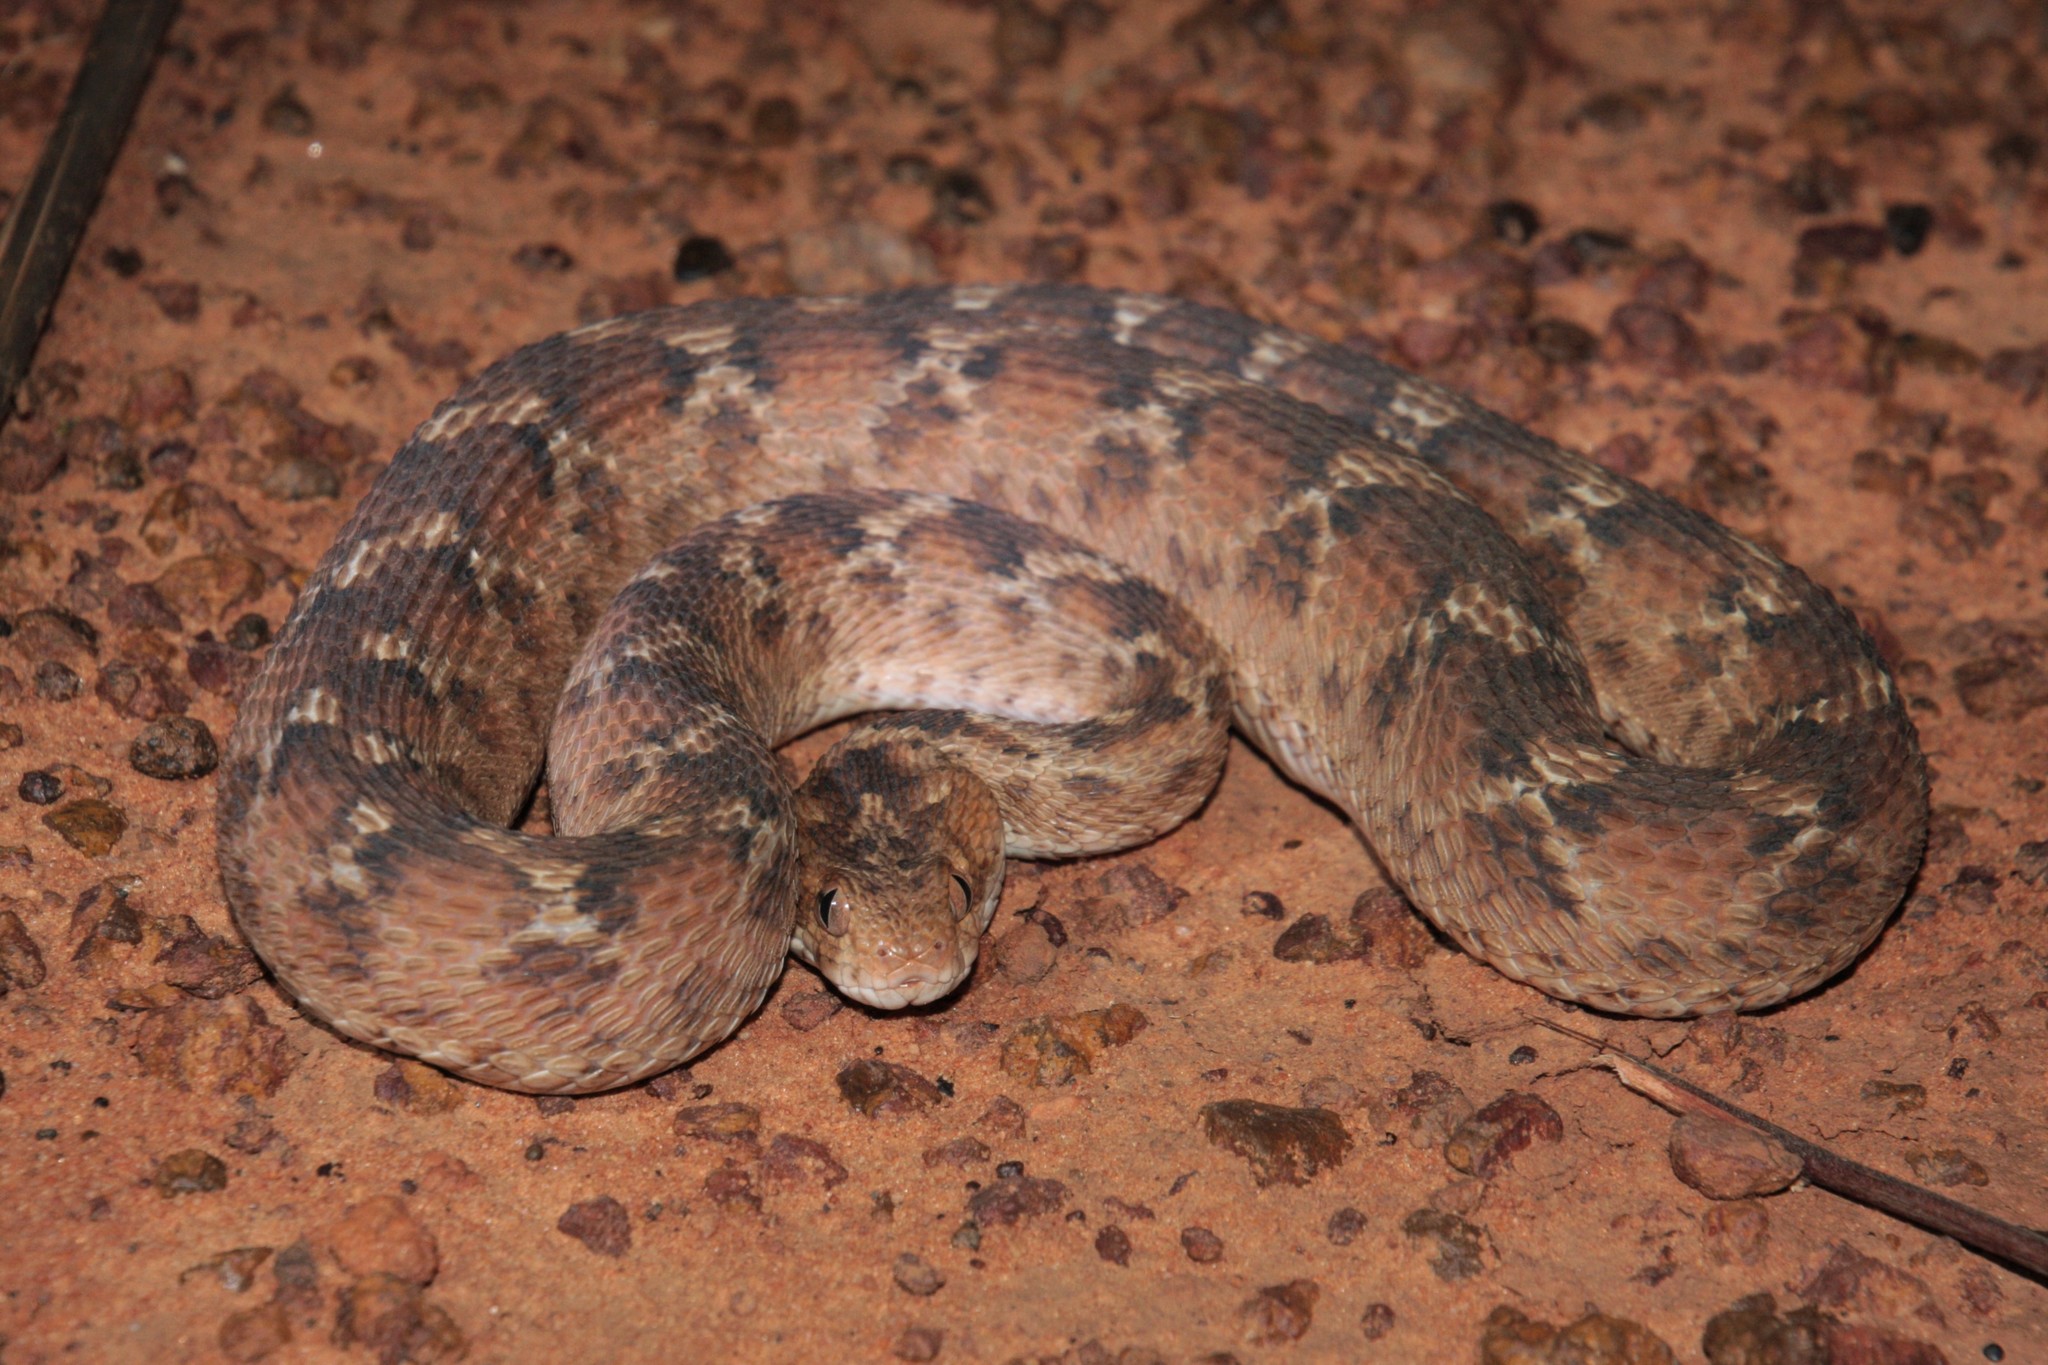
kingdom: Animalia
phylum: Chordata
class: Squamata
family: Viperidae
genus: Echis
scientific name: Echis leucogaster
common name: White-bellied carpet viper
